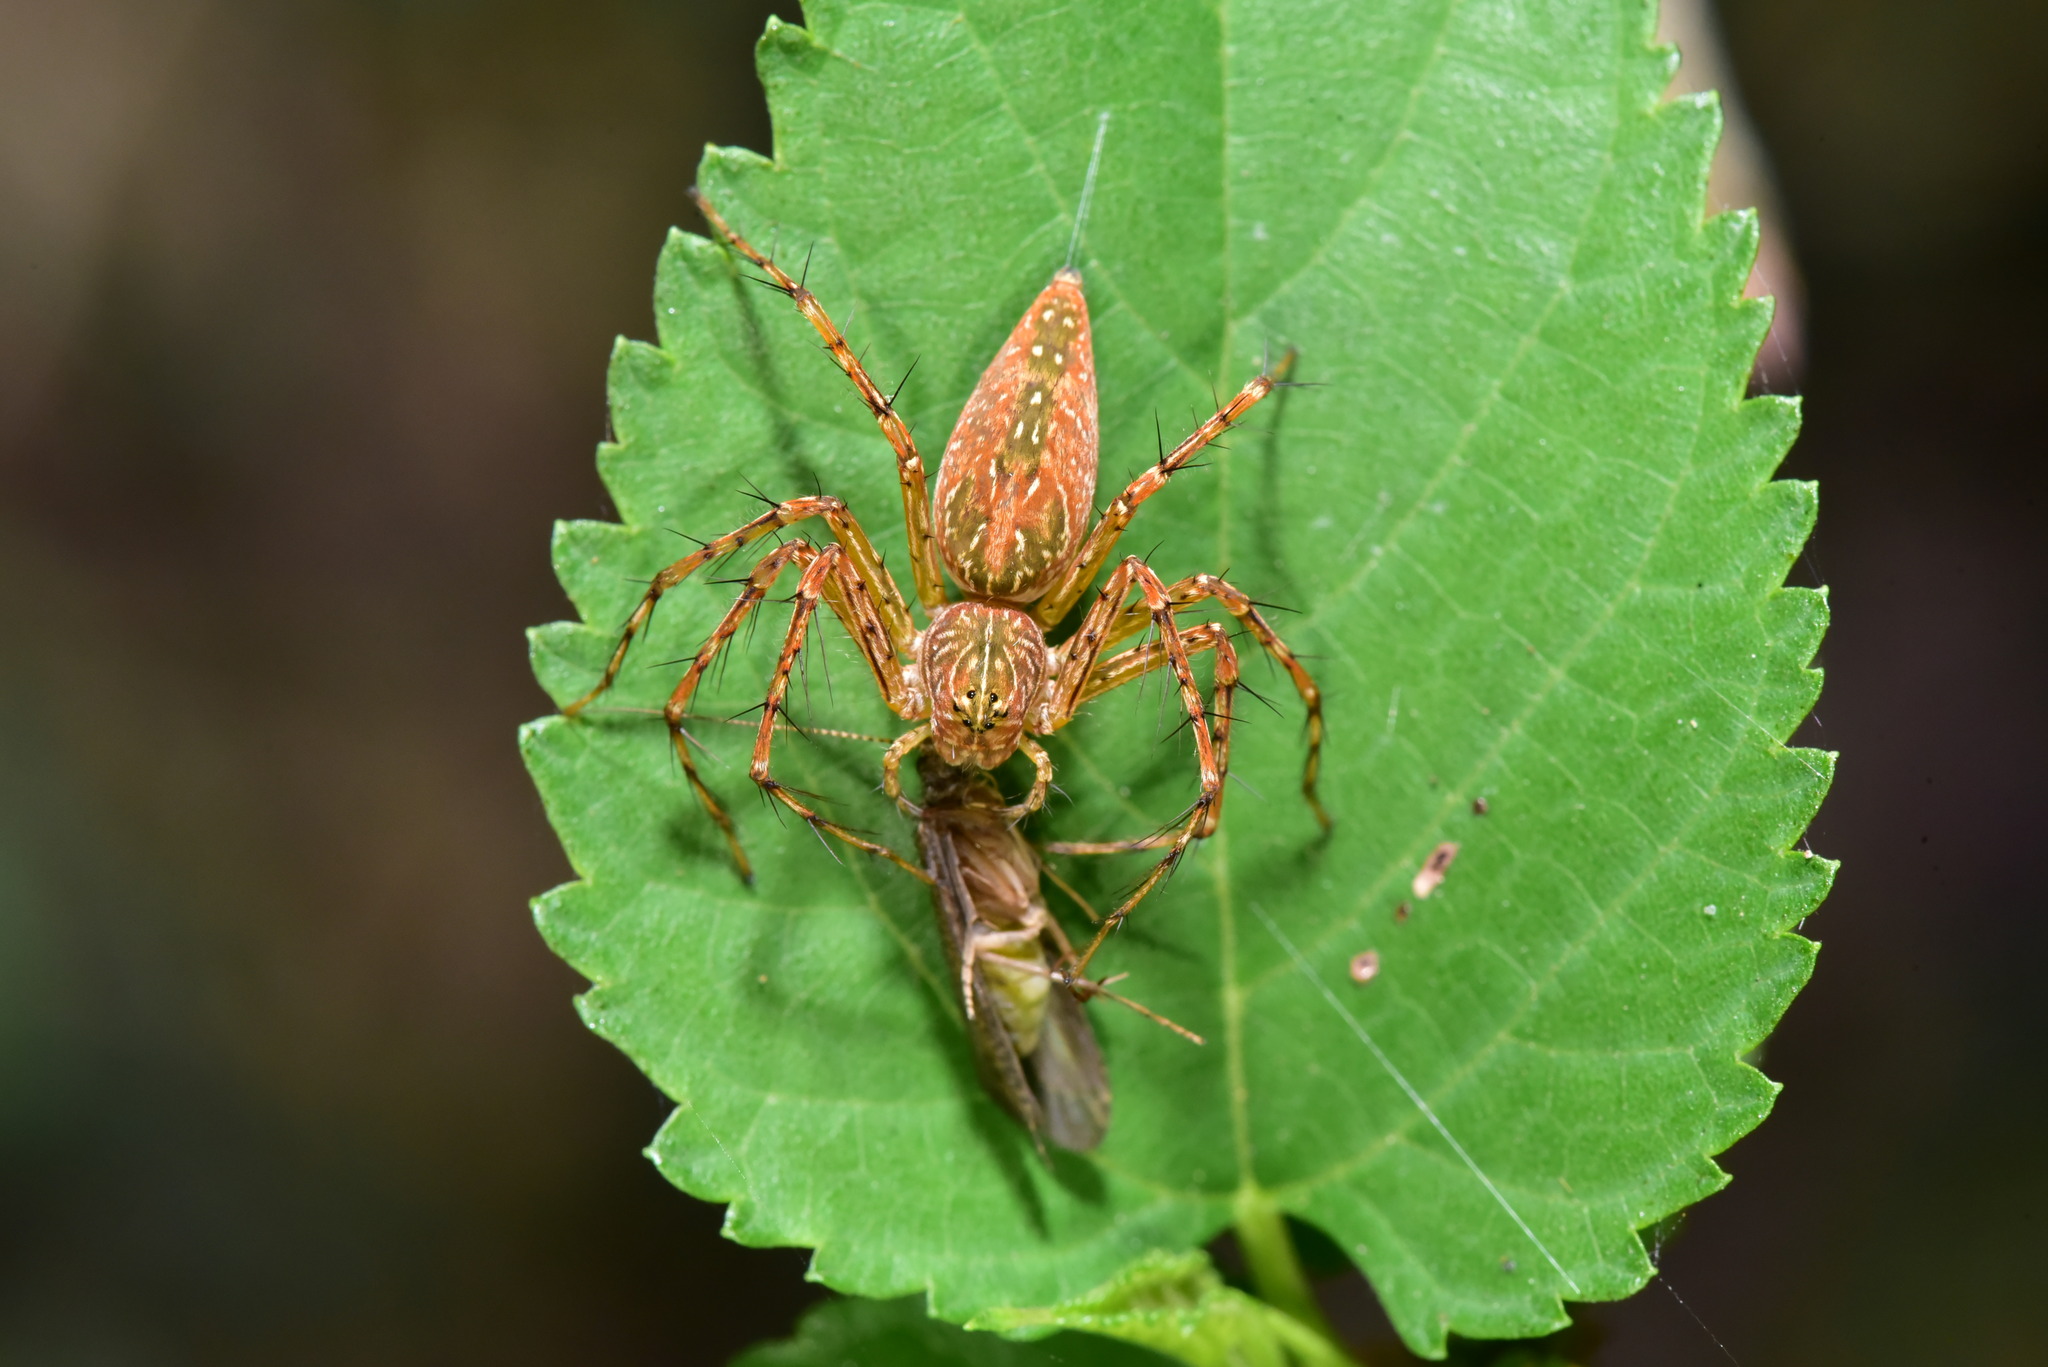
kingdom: Animalia
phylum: Arthropoda
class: Arachnida
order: Araneae
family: Oxyopidae
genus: Hamadruas
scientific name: Hamadruas hieroglyphica
